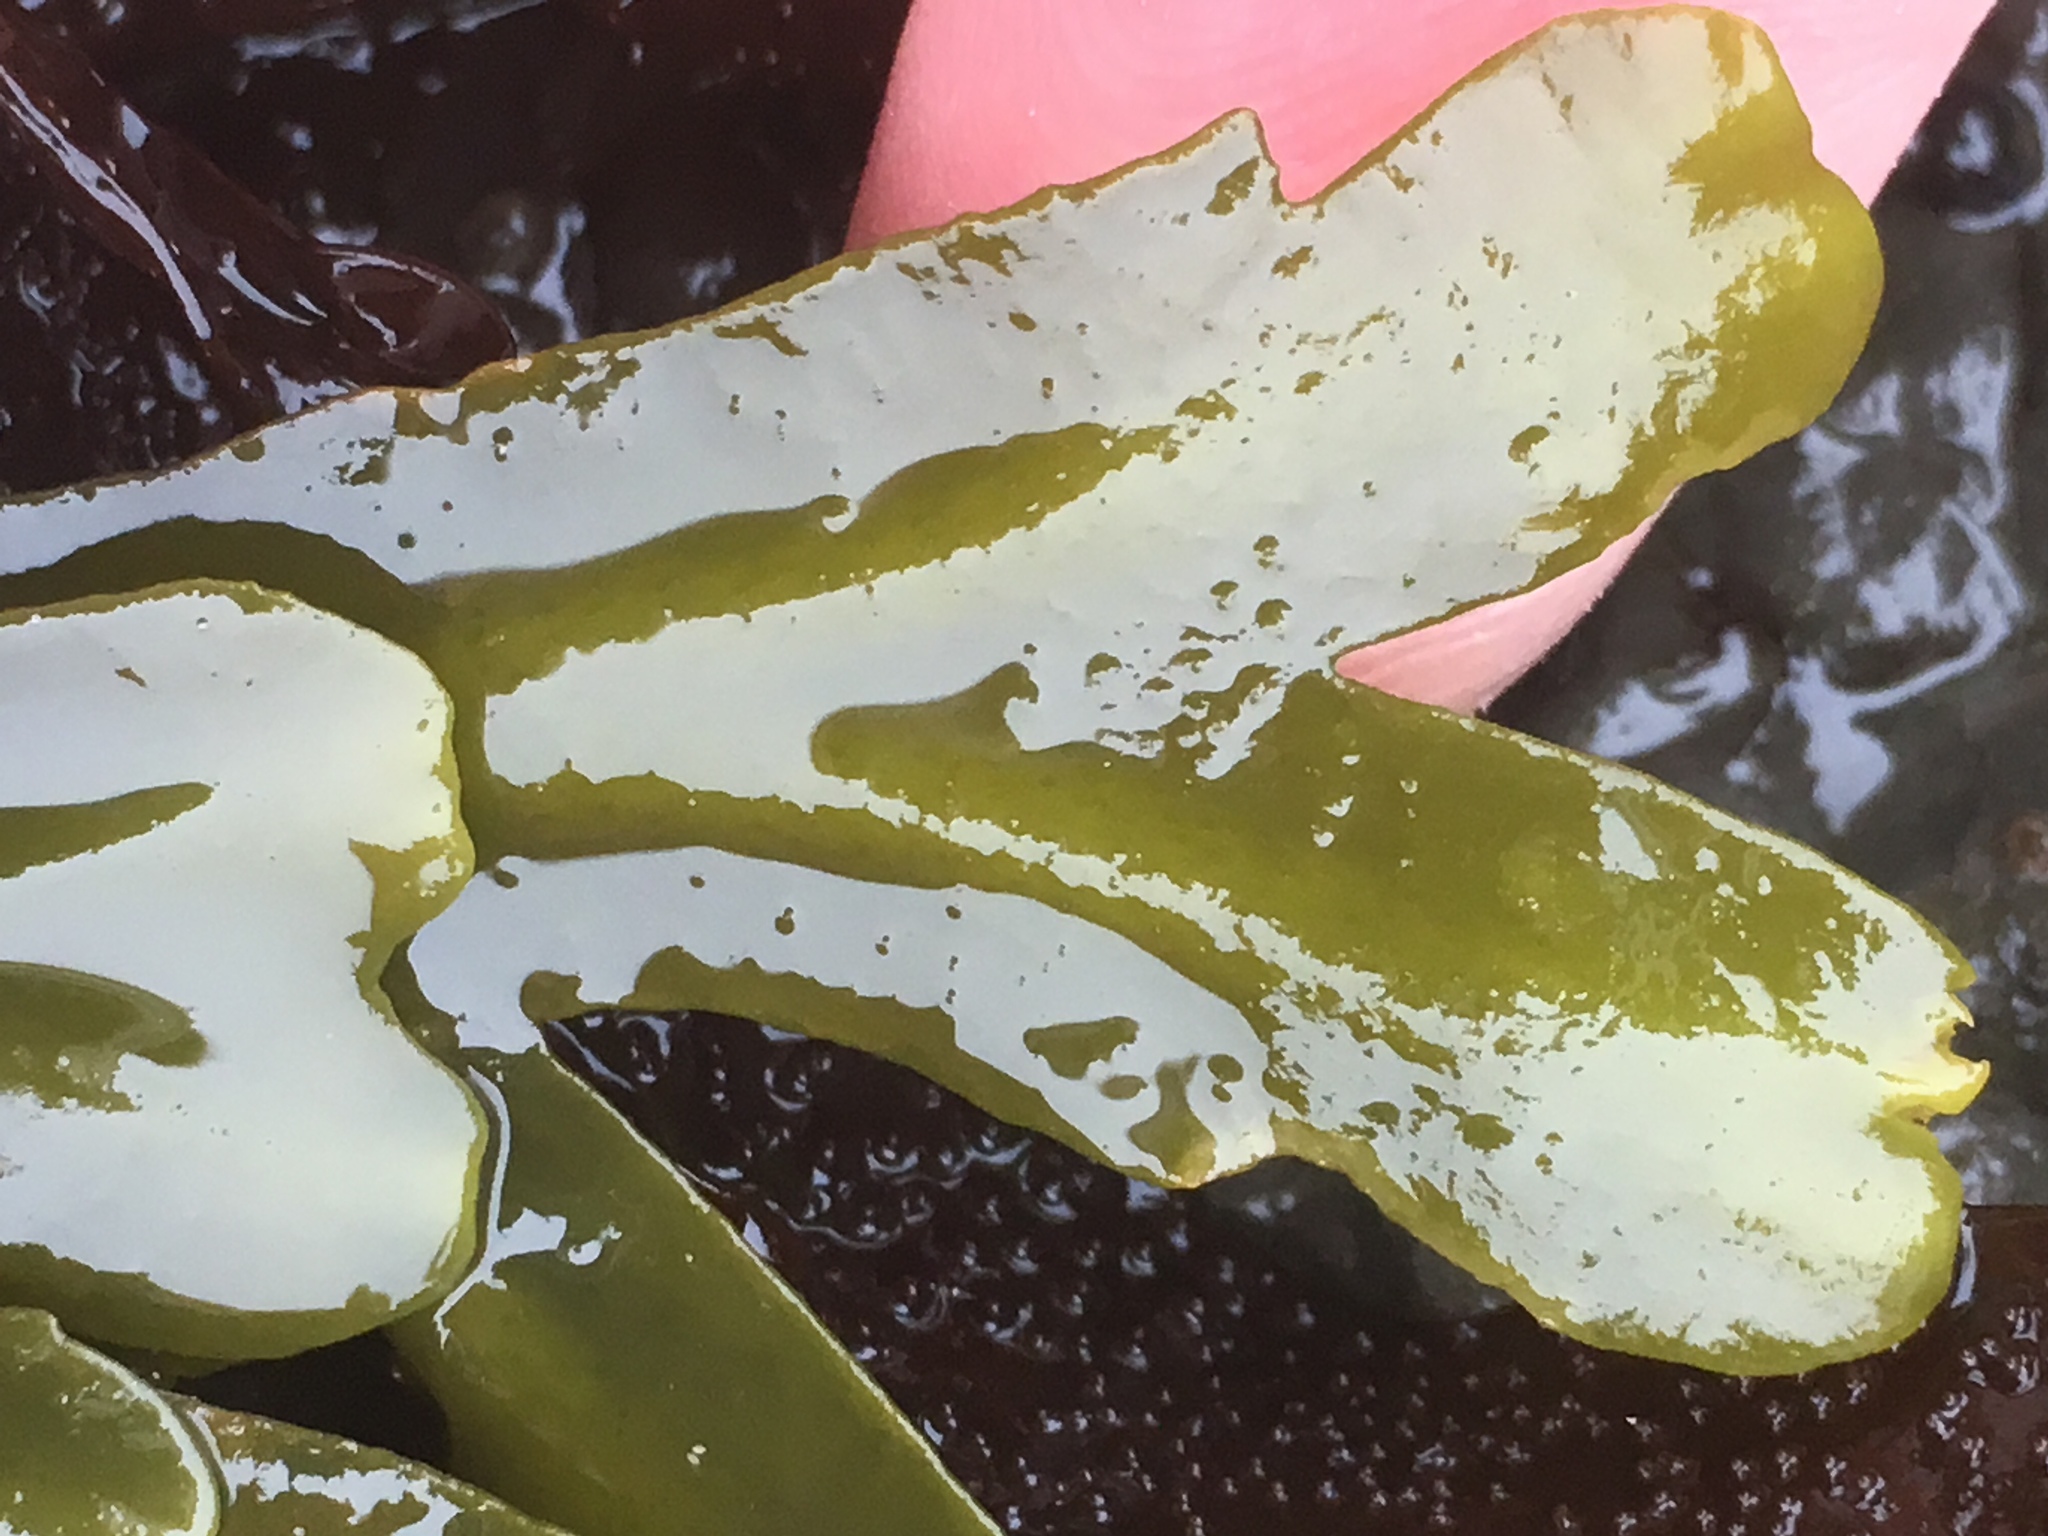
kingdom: Chromista
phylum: Ochrophyta
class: Phaeophyceae
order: Fucales
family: Fucaceae
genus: Fucus
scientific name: Fucus distichus
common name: Rockweed
